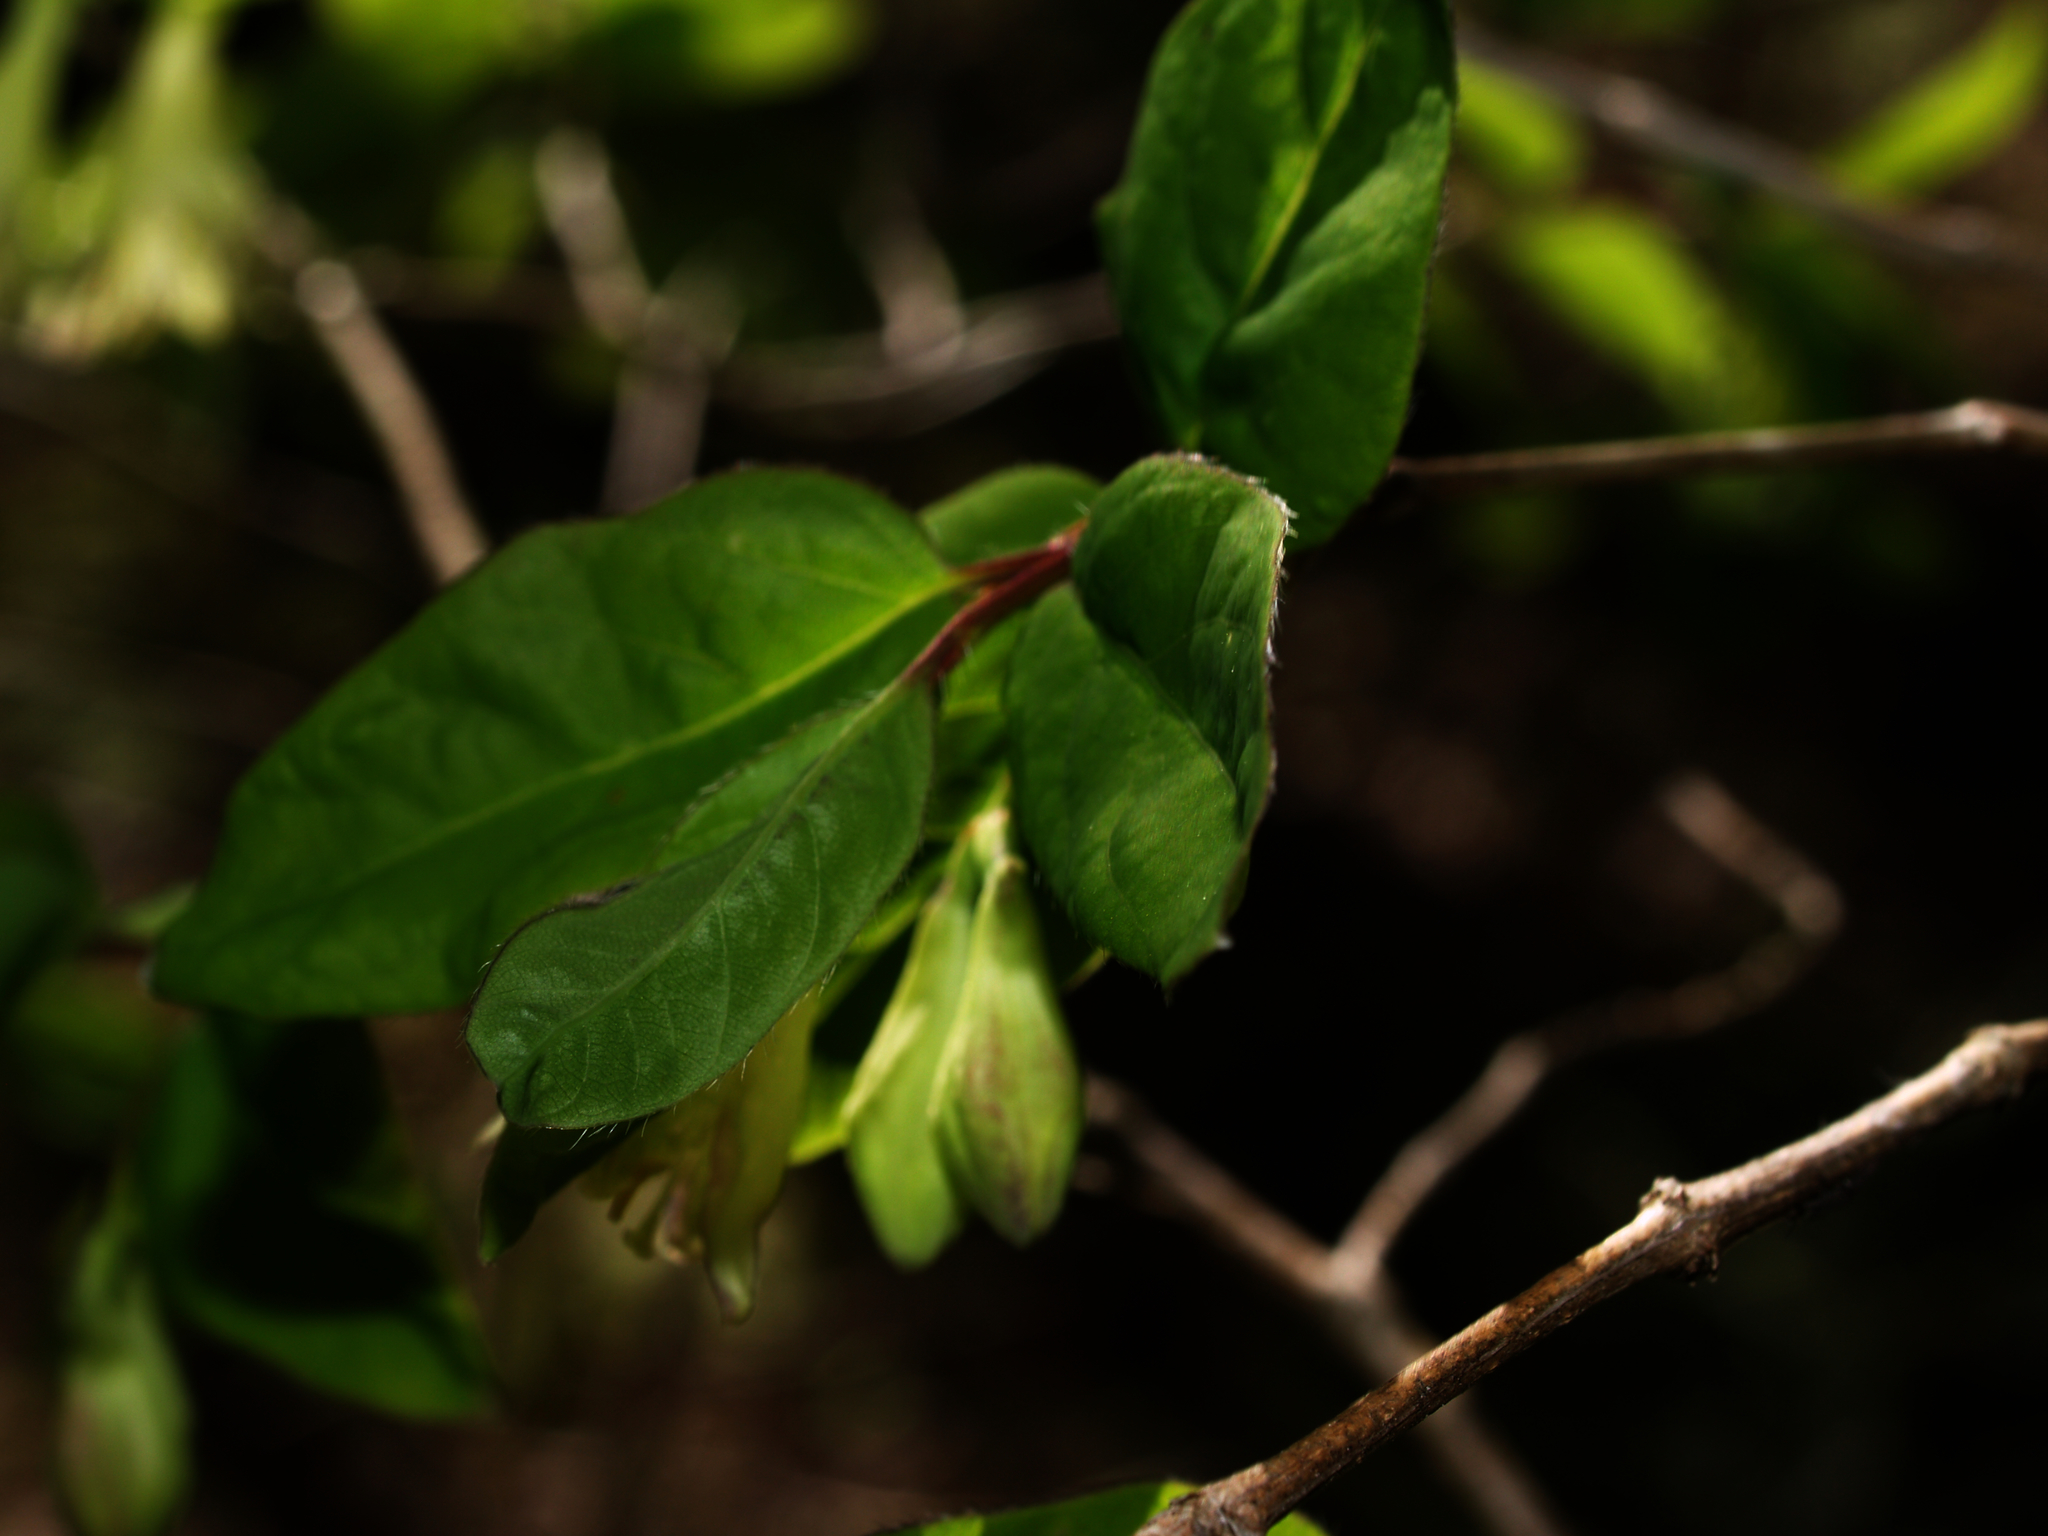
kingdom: Plantae
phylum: Tracheophyta
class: Magnoliopsida
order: Dipsacales
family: Caprifoliaceae
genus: Lonicera
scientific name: Lonicera canadensis
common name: American fly-honeysuckle
